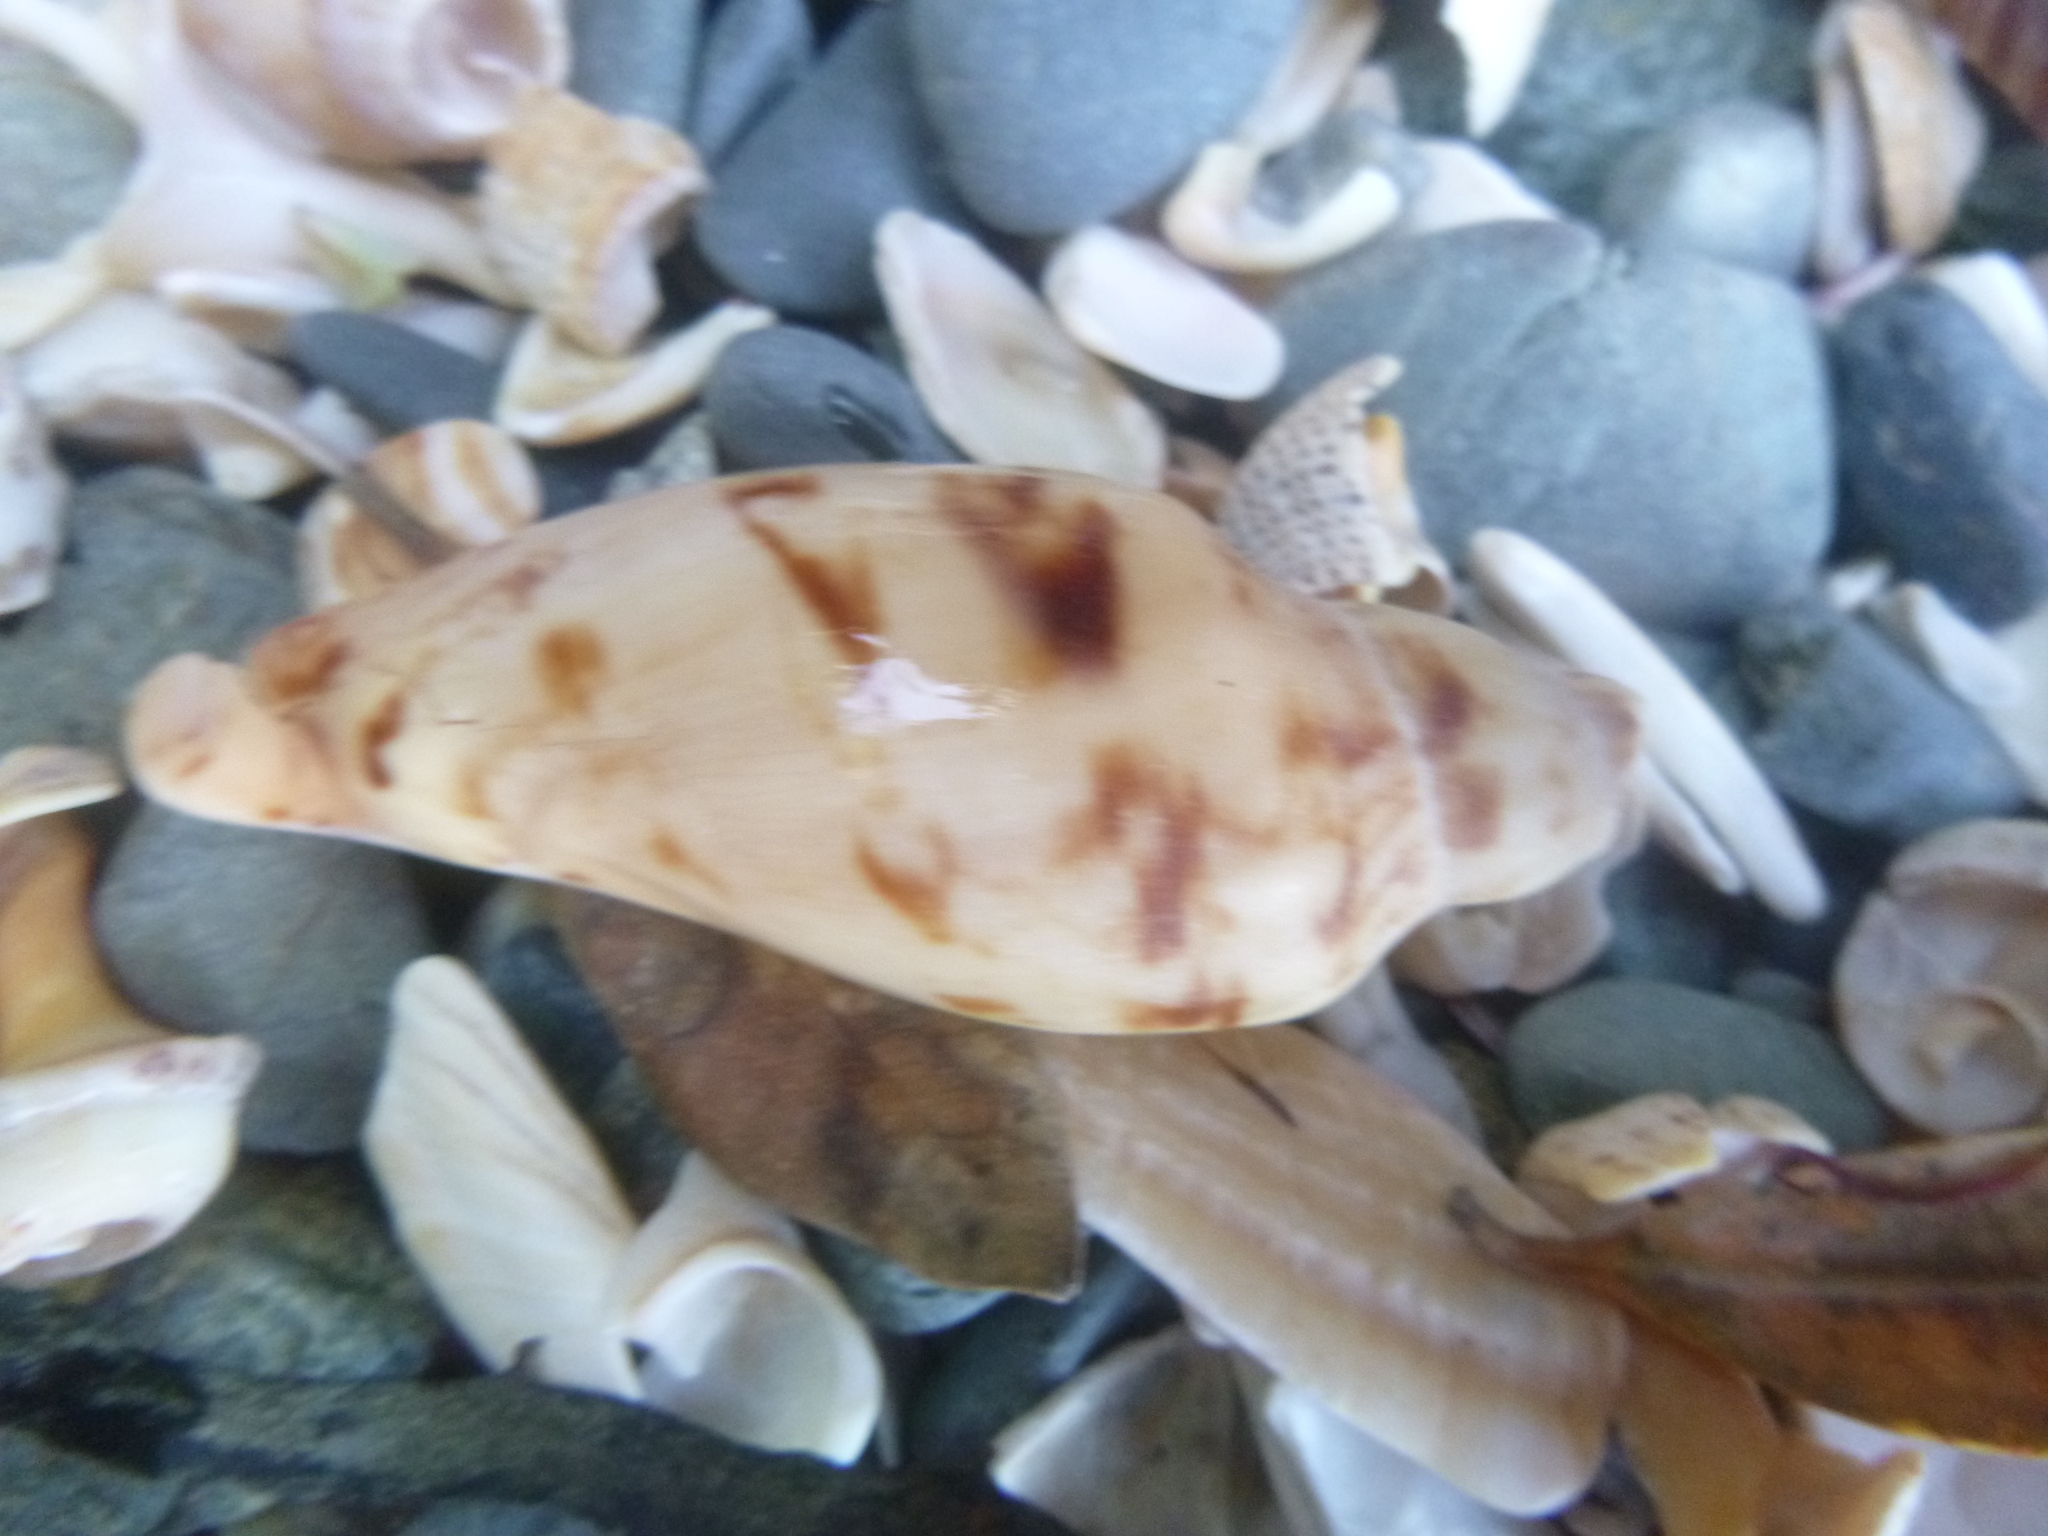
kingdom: Animalia
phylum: Mollusca
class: Gastropoda
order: Neogastropoda
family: Volutidae
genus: Alcithoe
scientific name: Alcithoe arabica
